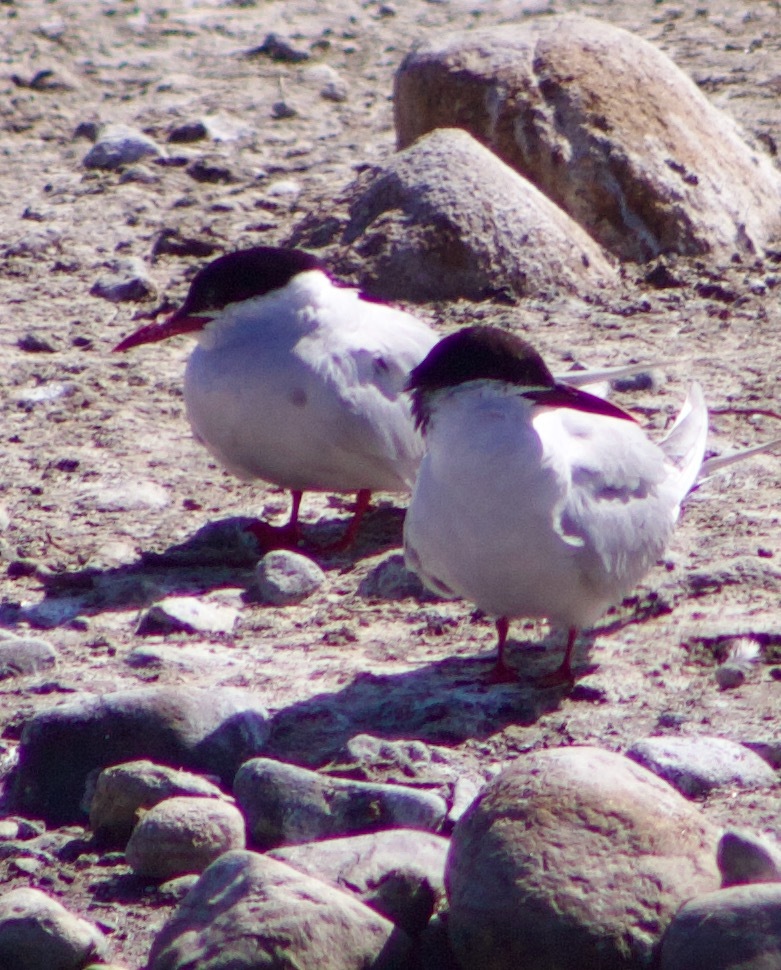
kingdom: Animalia
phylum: Chordata
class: Aves
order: Charadriiformes
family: Laridae
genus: Sterna
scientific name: Sterna hirundinacea
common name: South american tern
